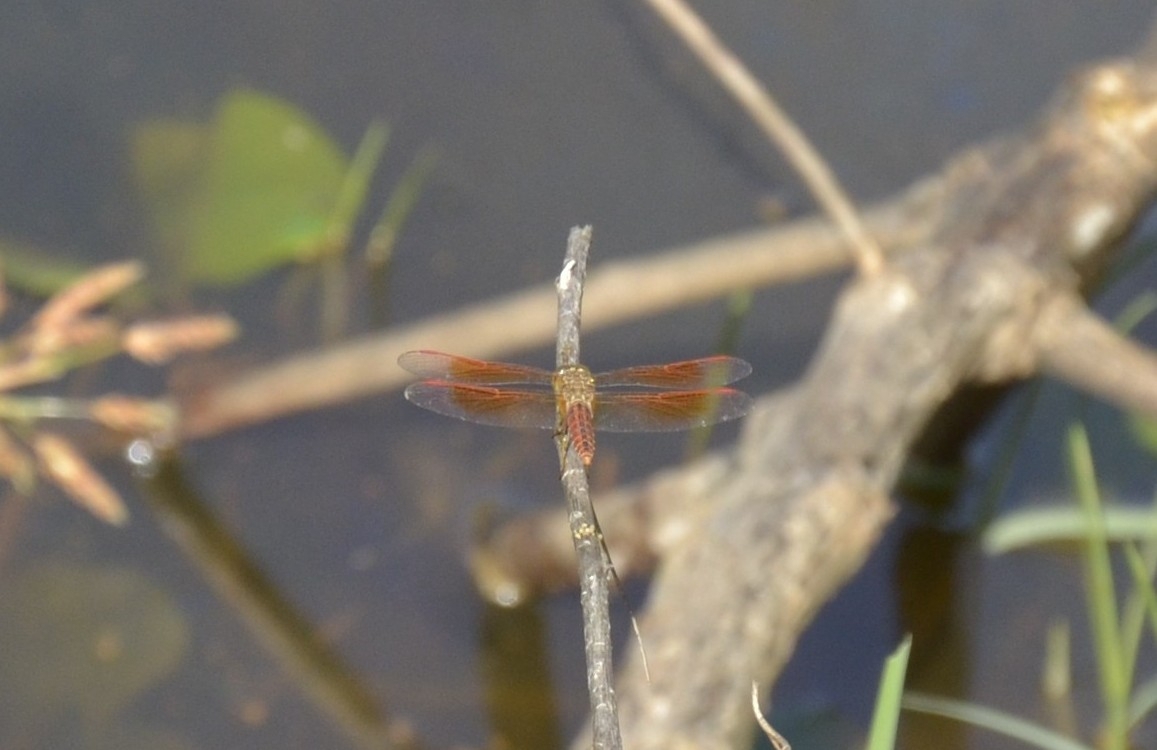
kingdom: Animalia
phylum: Arthropoda
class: Insecta
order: Odonata
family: Libellulidae
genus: Brachythemis
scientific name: Brachythemis contaminata
